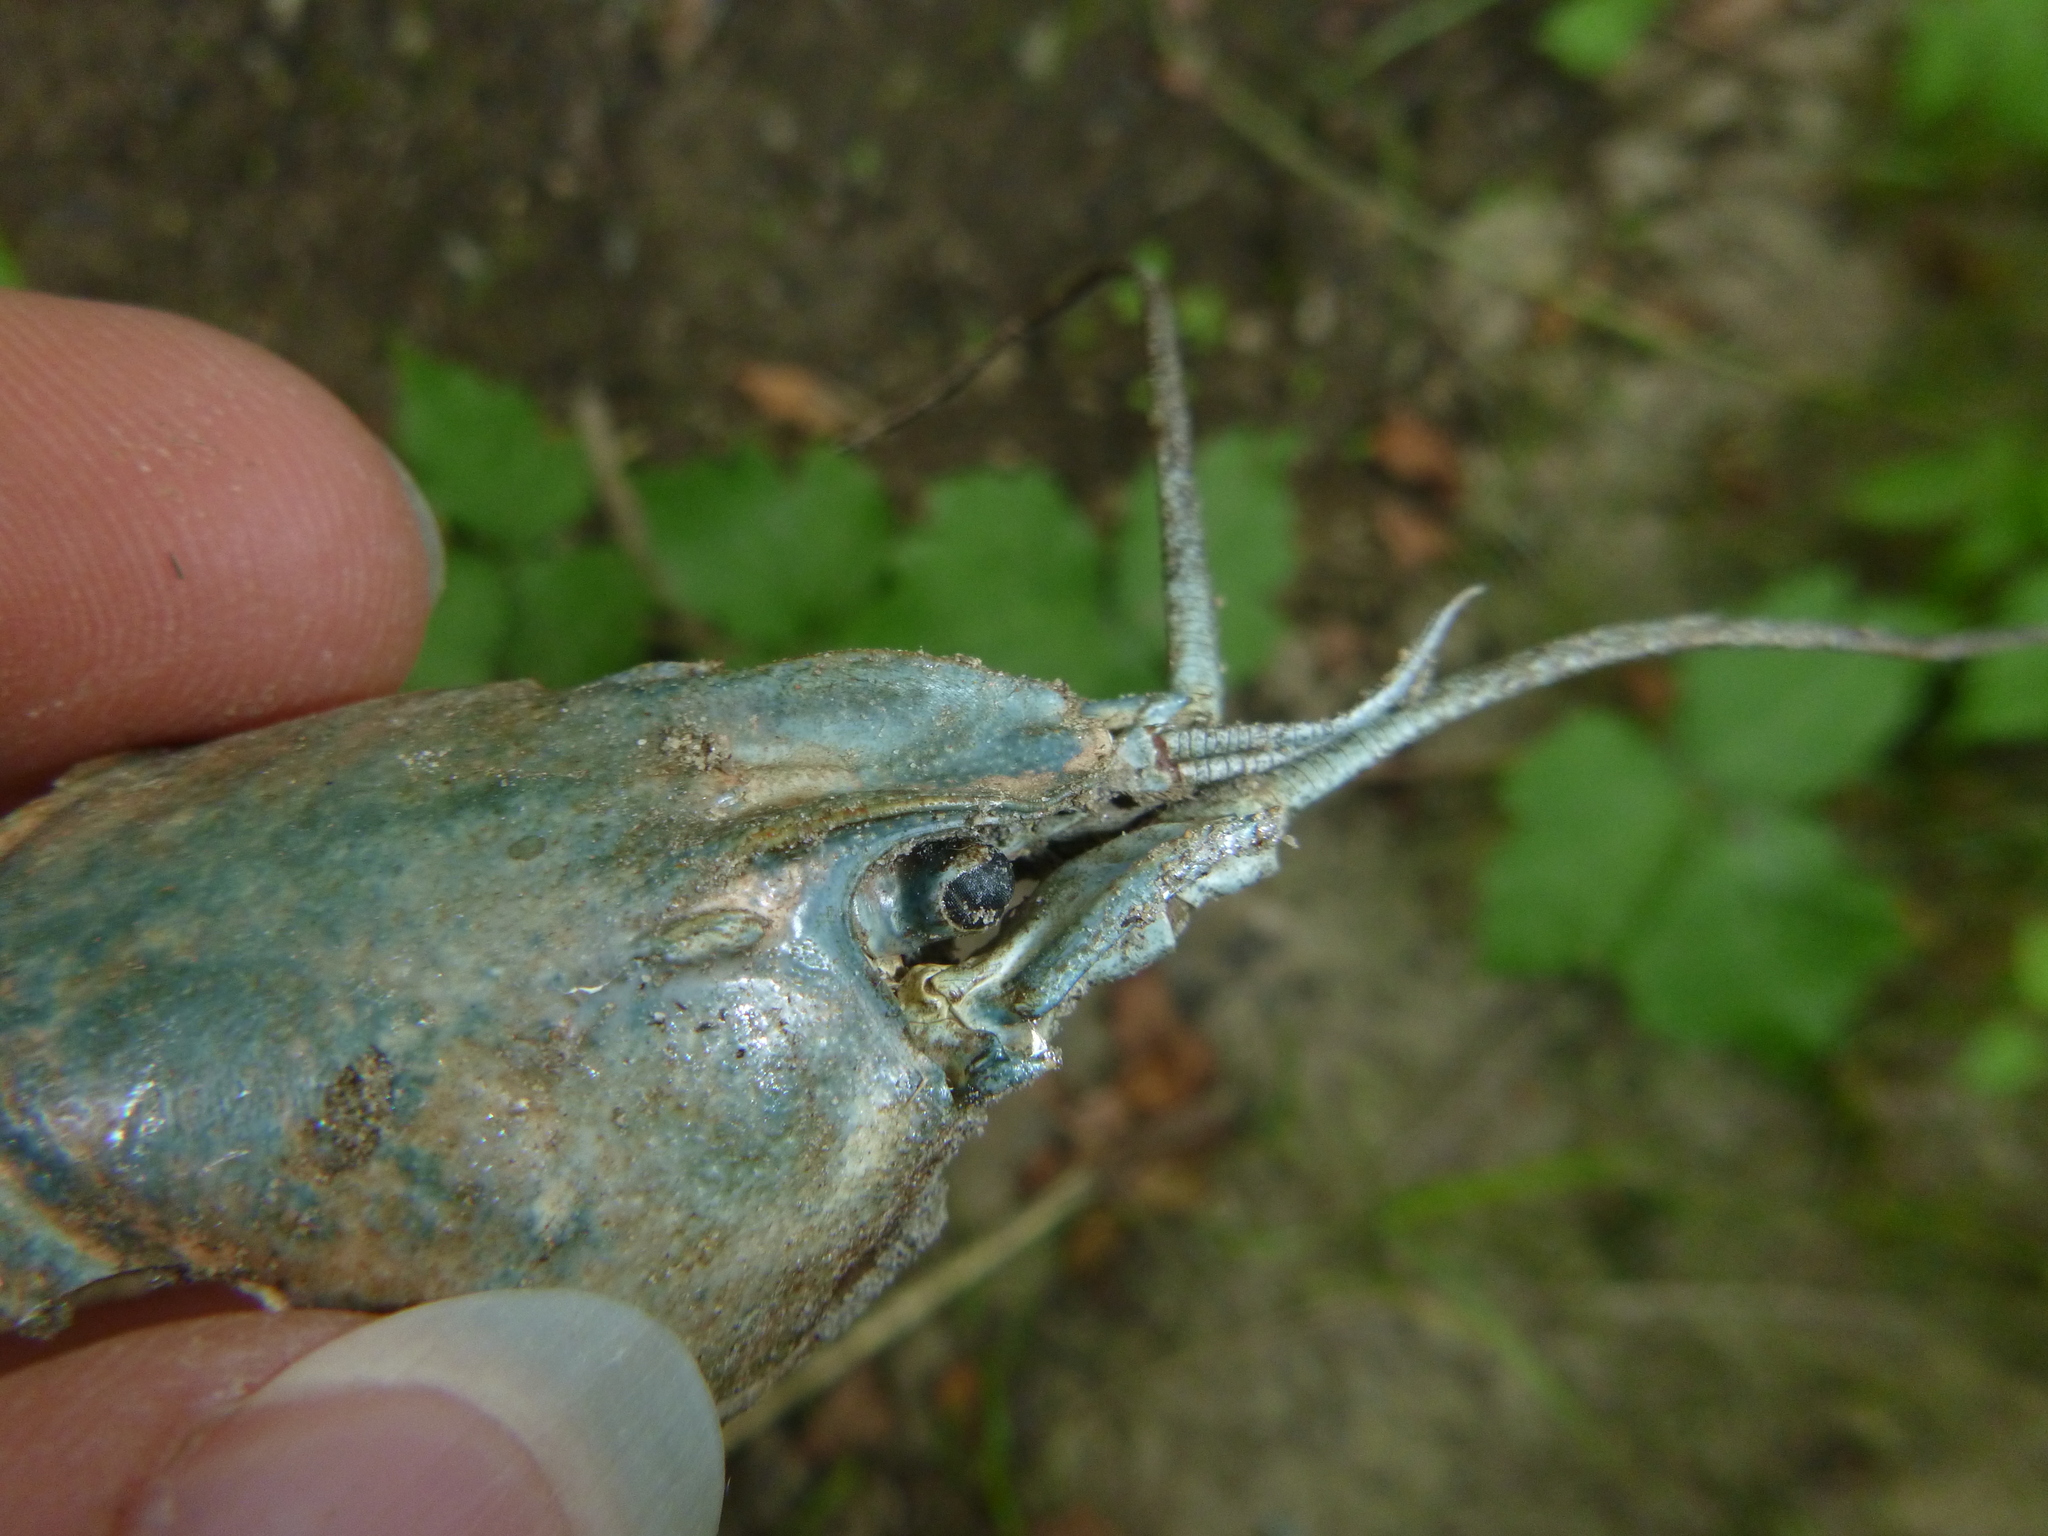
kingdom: Animalia
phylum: Arthropoda
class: Malacostraca
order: Decapoda
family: Astacidae
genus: Pacifastacus
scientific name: Pacifastacus leniusculus
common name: Signal crayfish
